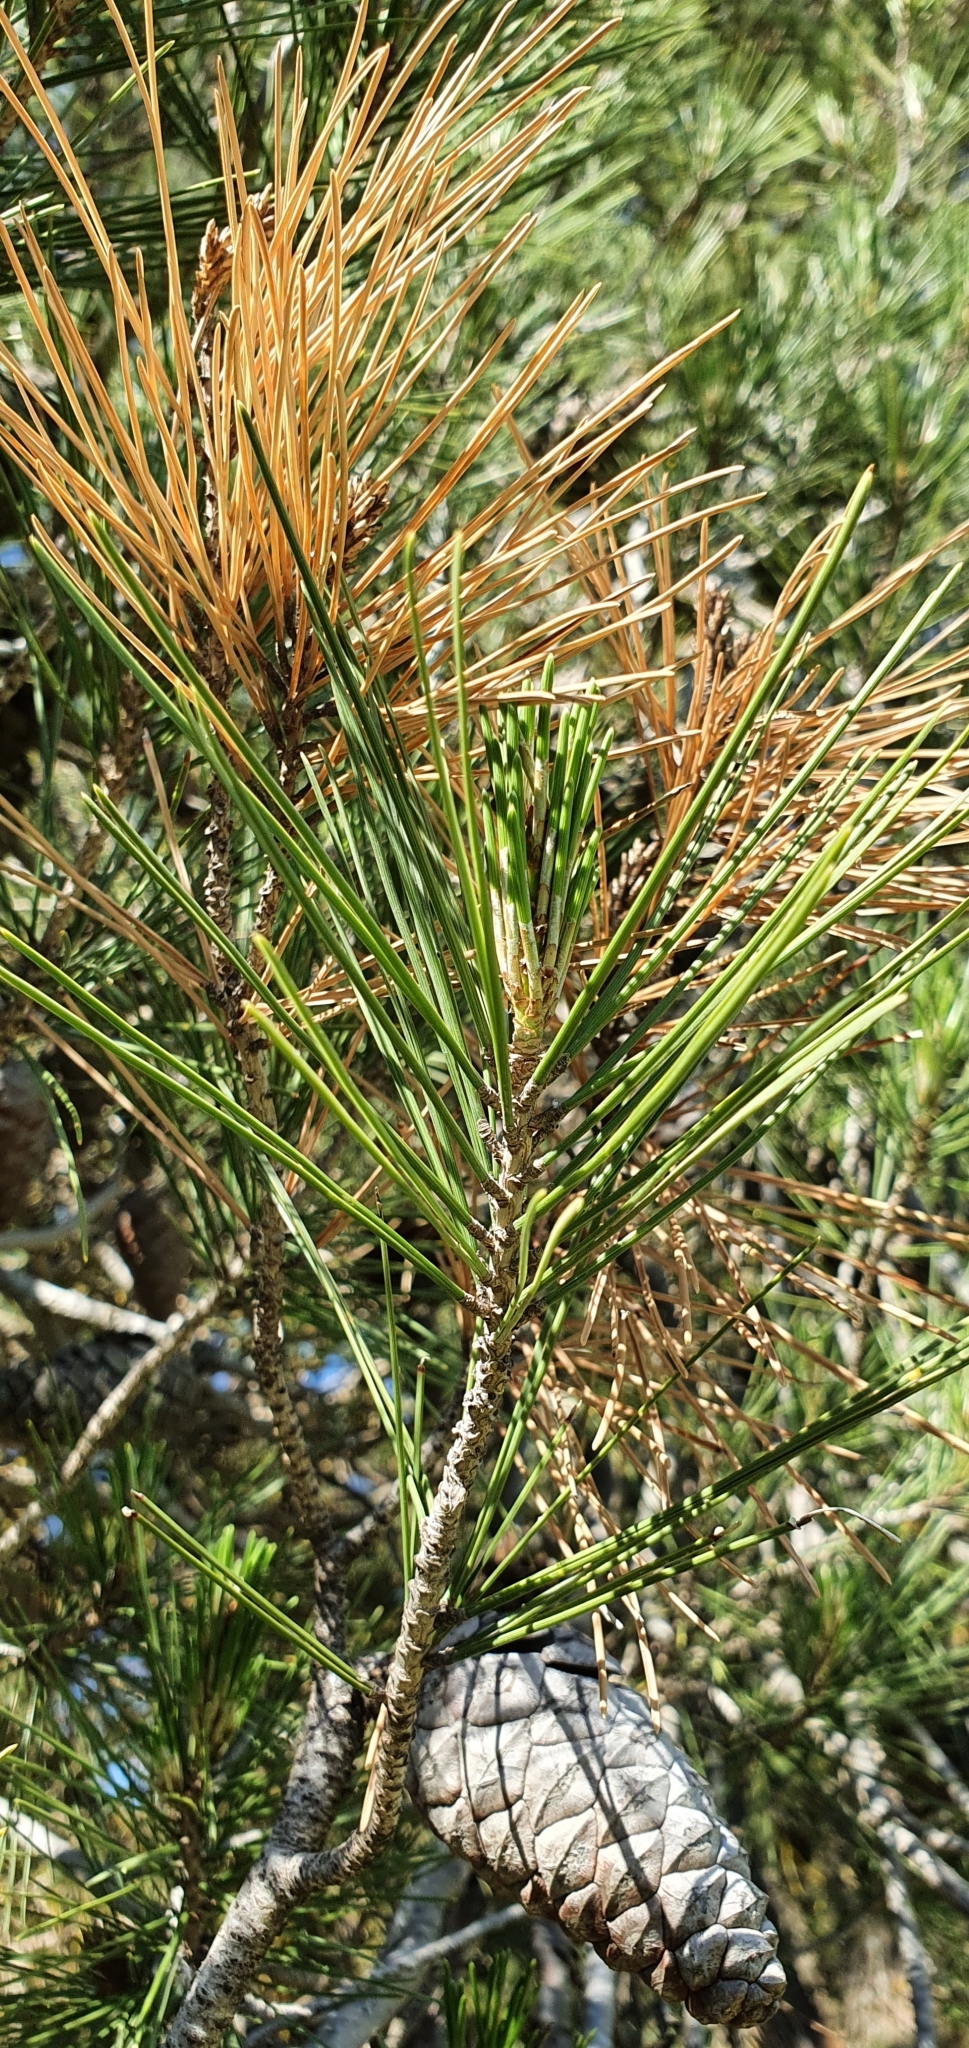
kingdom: Plantae
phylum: Tracheophyta
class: Pinopsida
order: Pinales
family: Pinaceae
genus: Pinus
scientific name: Pinus halepensis
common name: Aleppo pine
